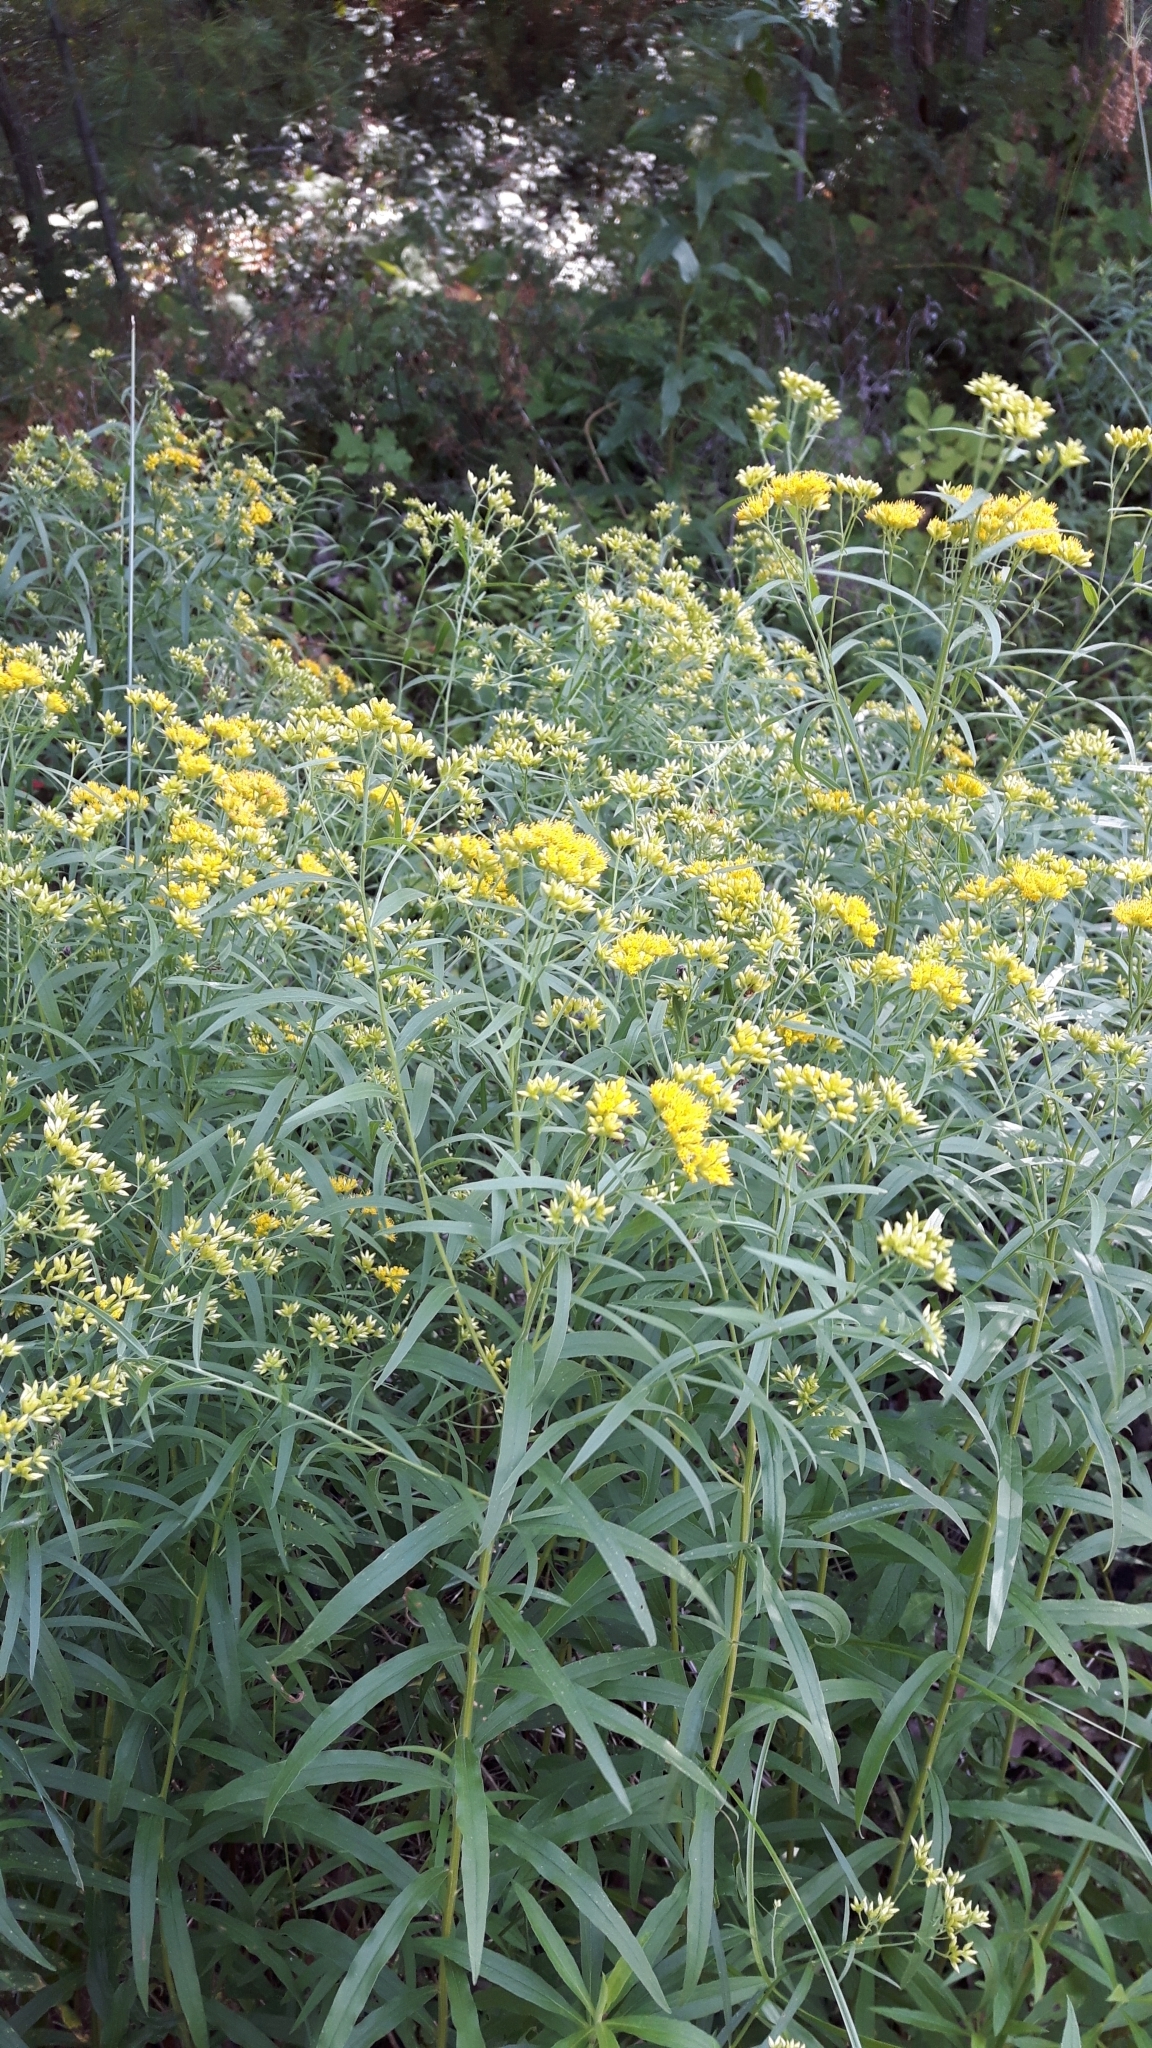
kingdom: Plantae
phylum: Tracheophyta
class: Magnoliopsida
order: Asterales
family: Asteraceae
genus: Euthamia
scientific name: Euthamia graminifolia
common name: Common goldentop
